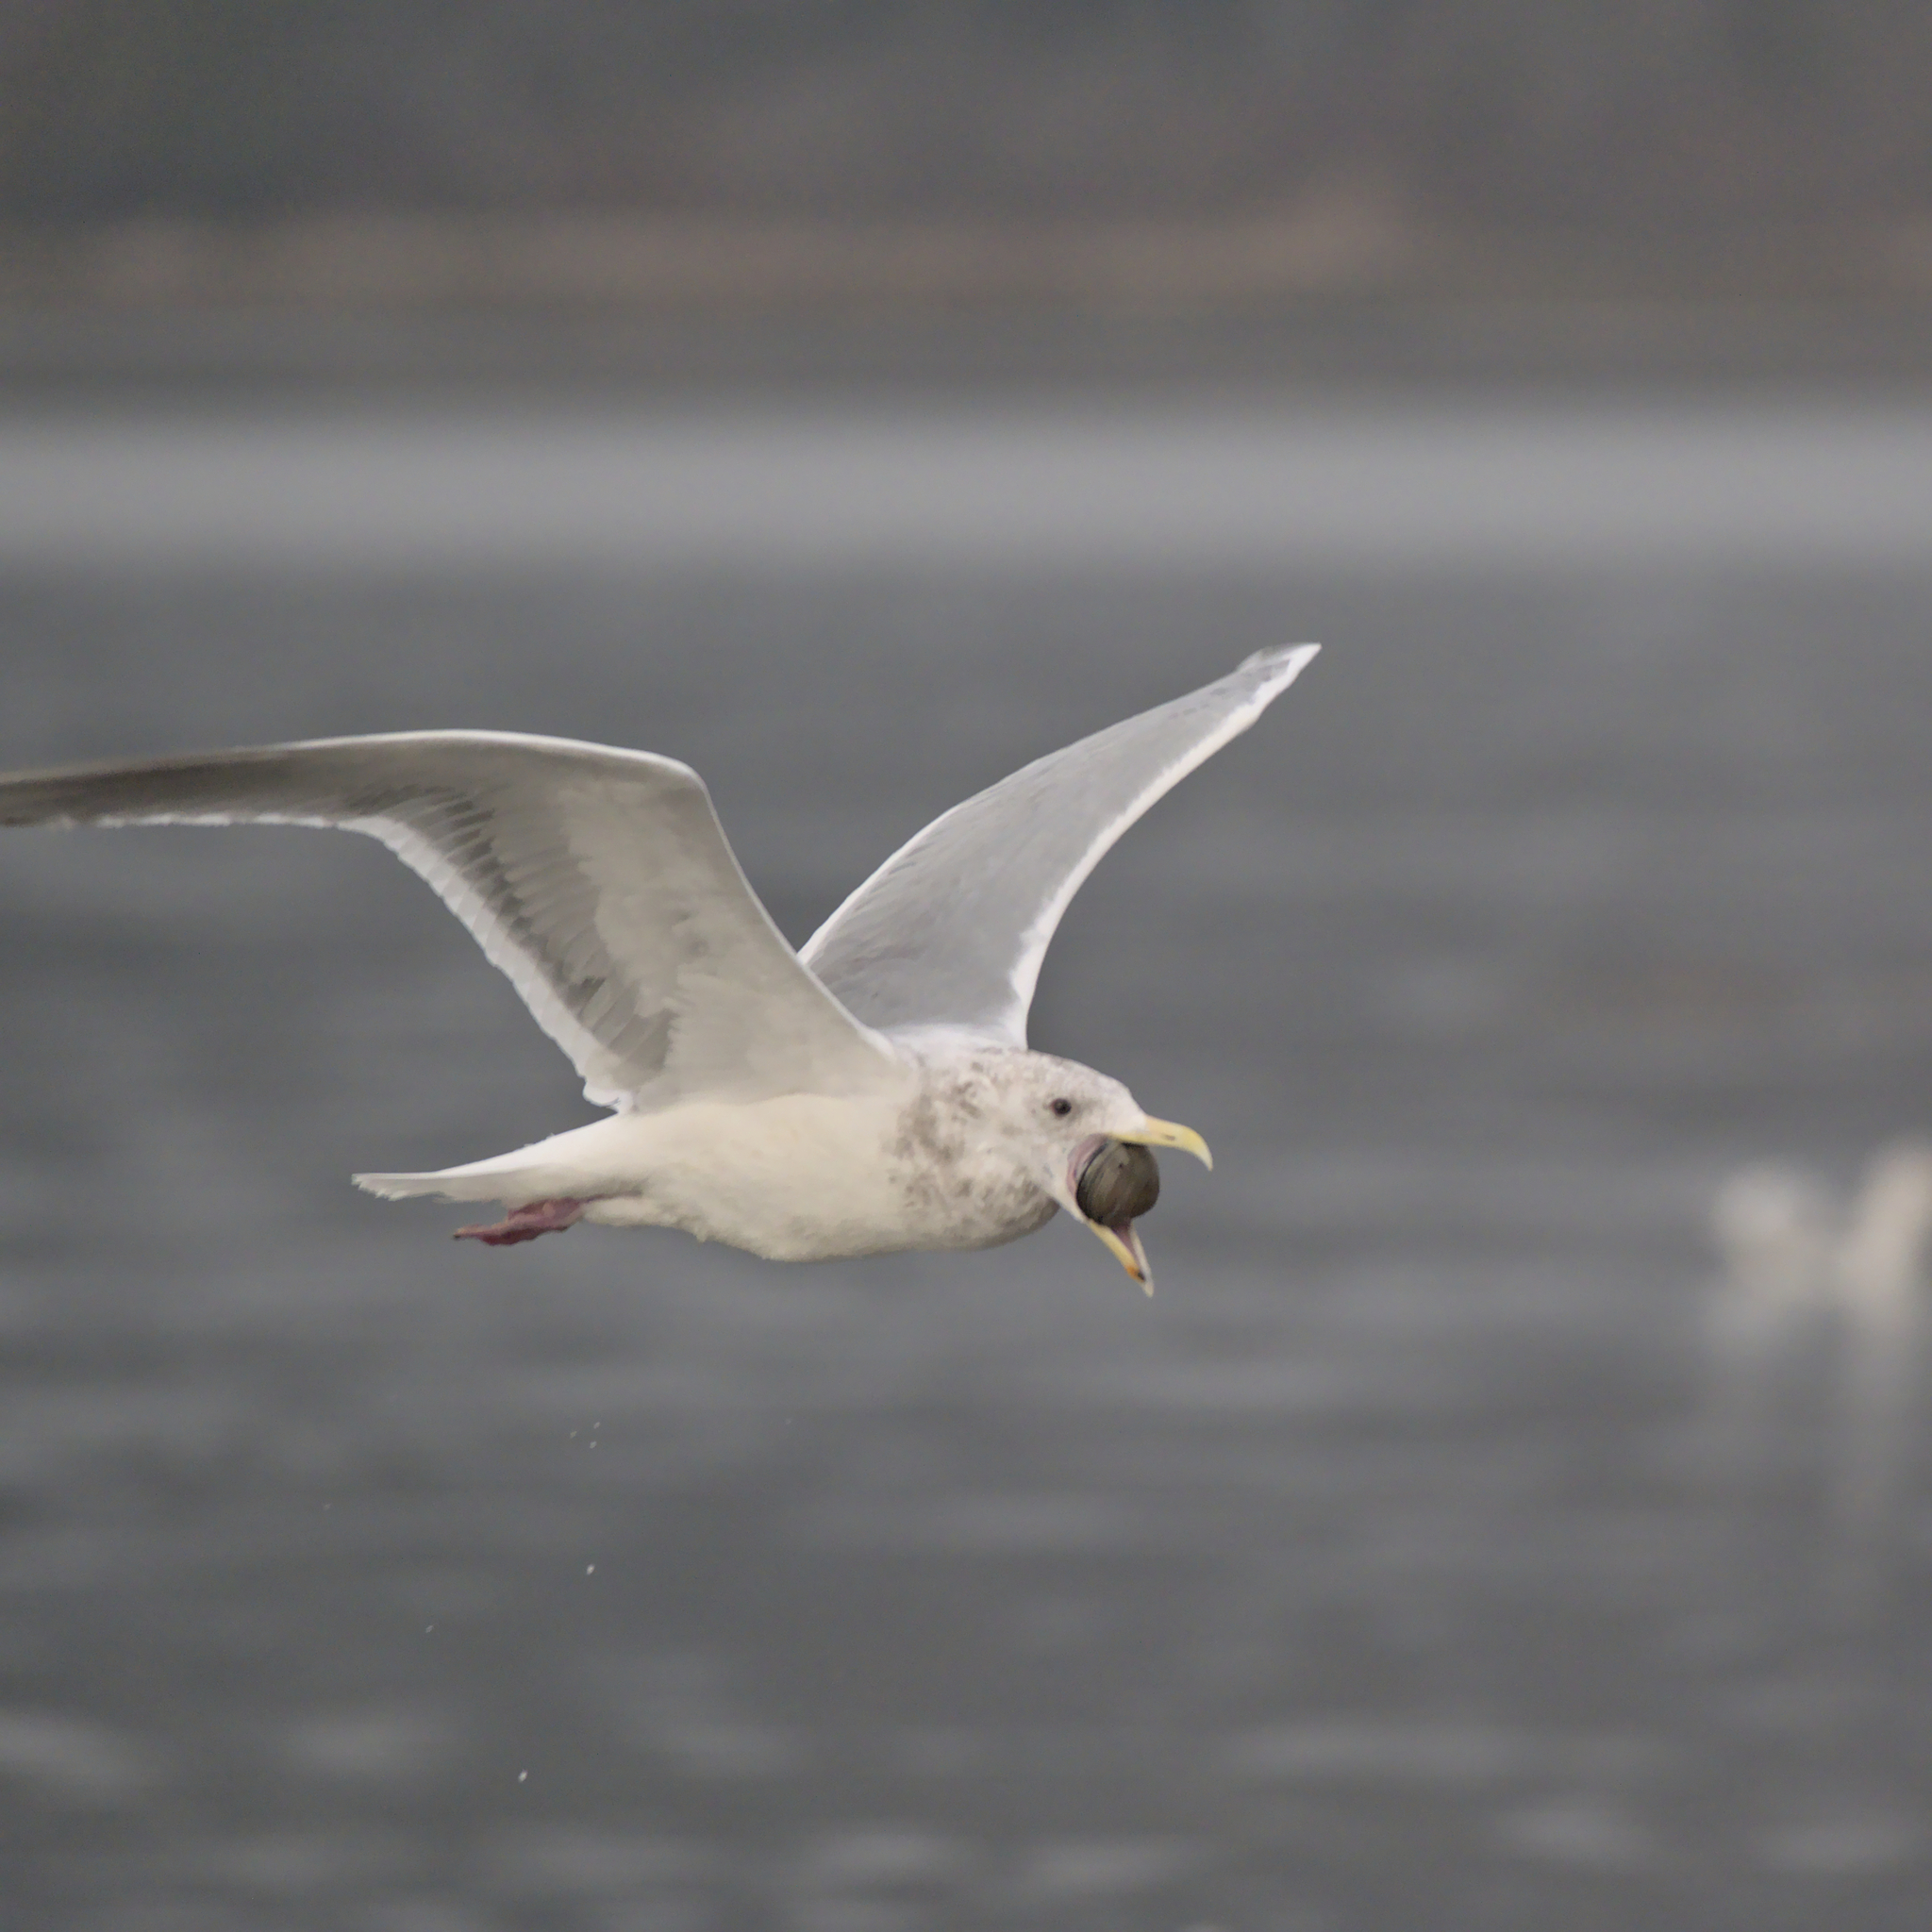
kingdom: Animalia
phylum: Chordata
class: Aves
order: Charadriiformes
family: Laridae
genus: Larus
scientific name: Larus glaucescens
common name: Glaucous-winged gull
